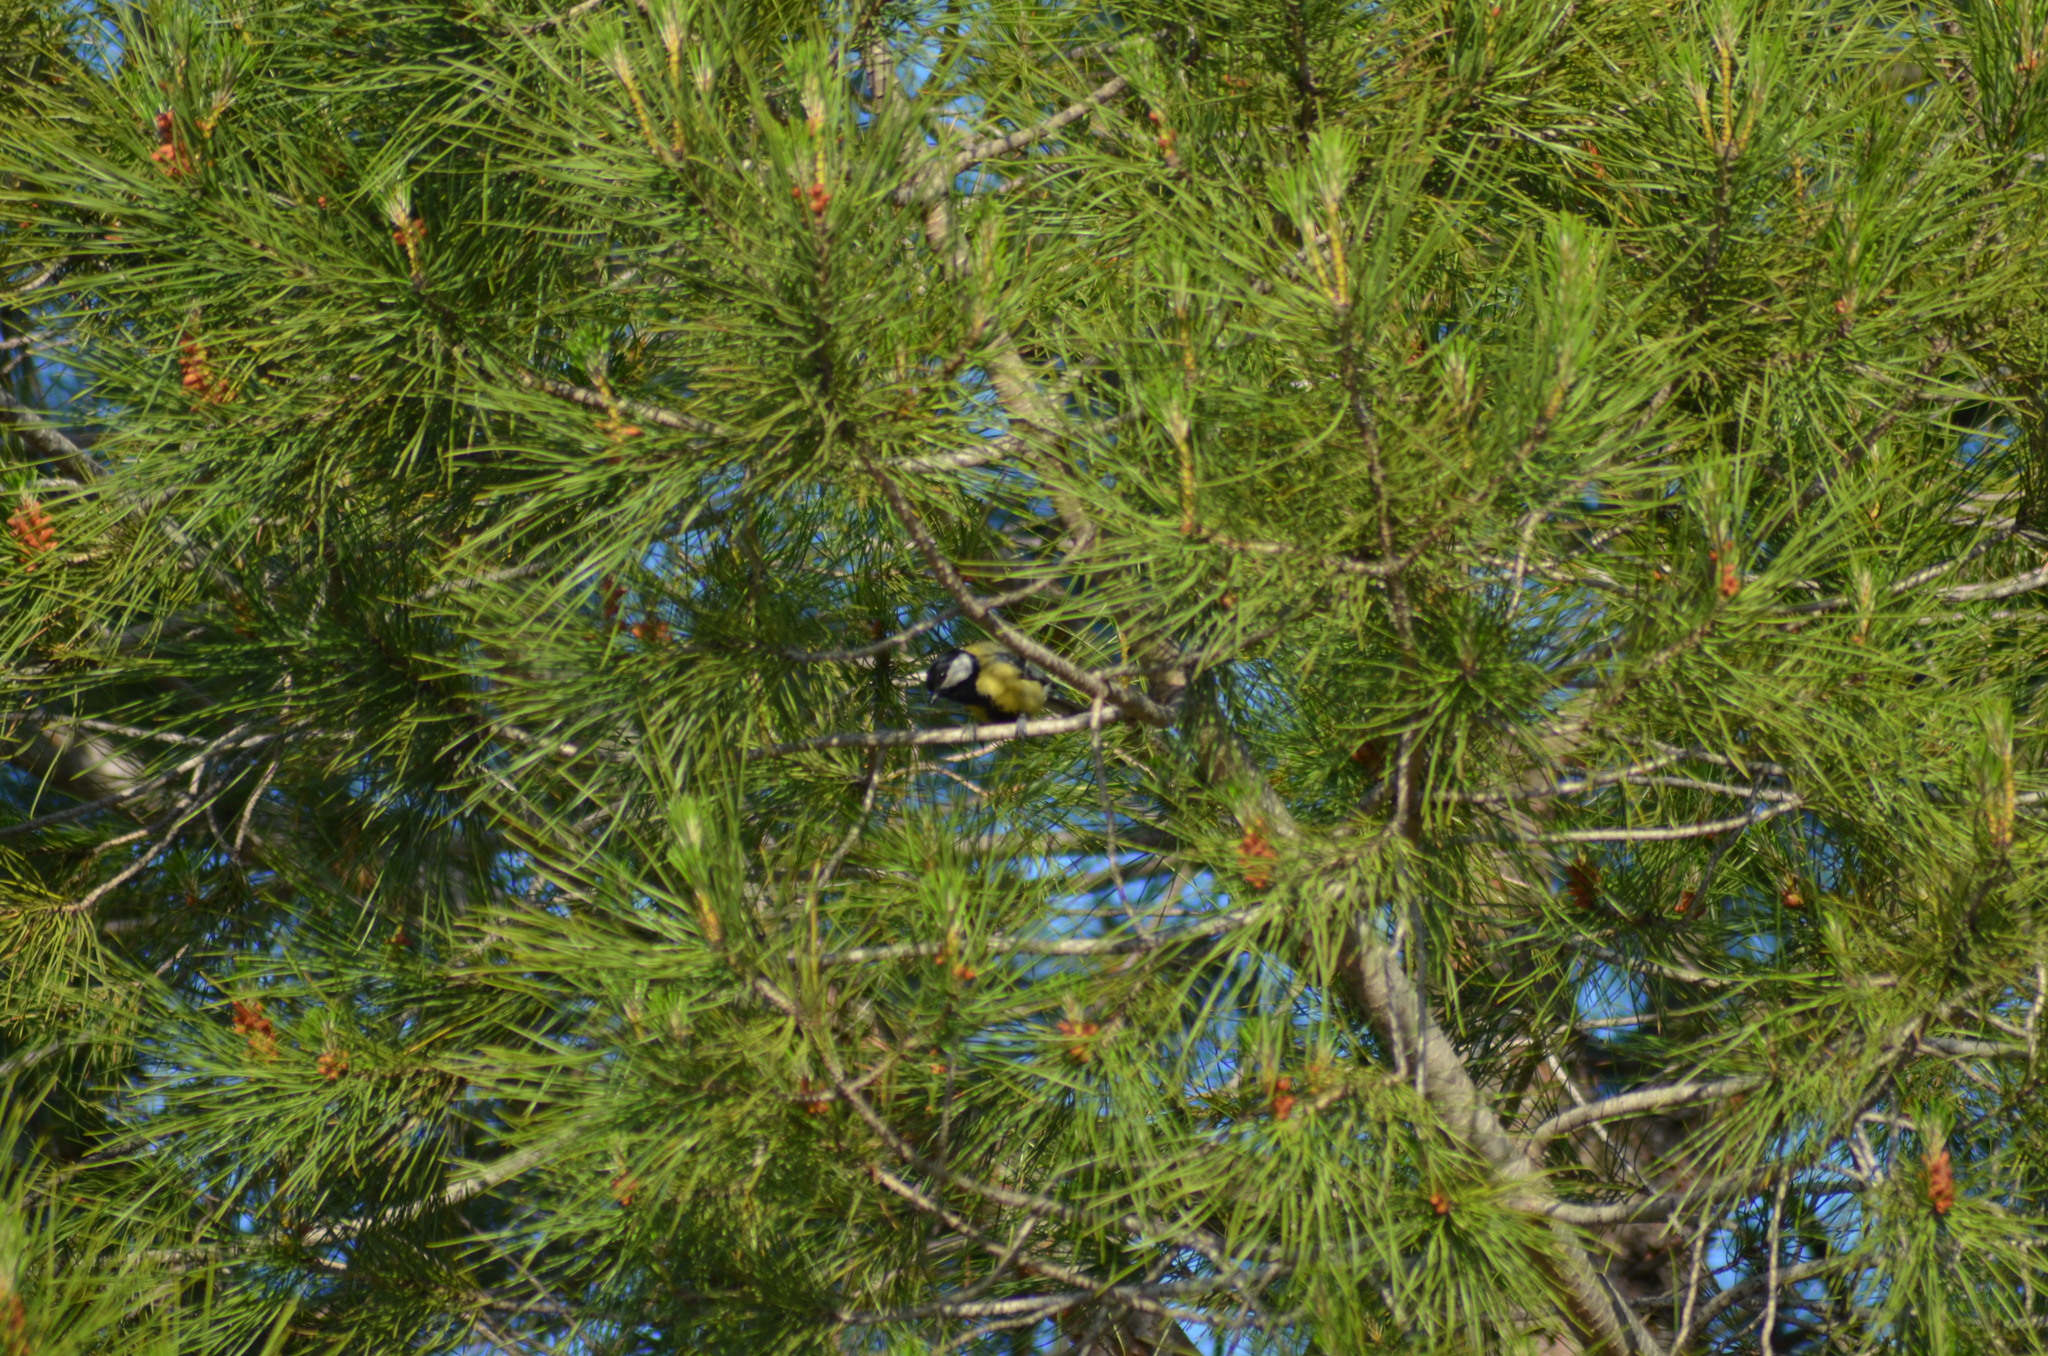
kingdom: Animalia
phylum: Chordata
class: Aves
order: Passeriformes
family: Paridae
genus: Parus
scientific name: Parus major
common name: Great tit
